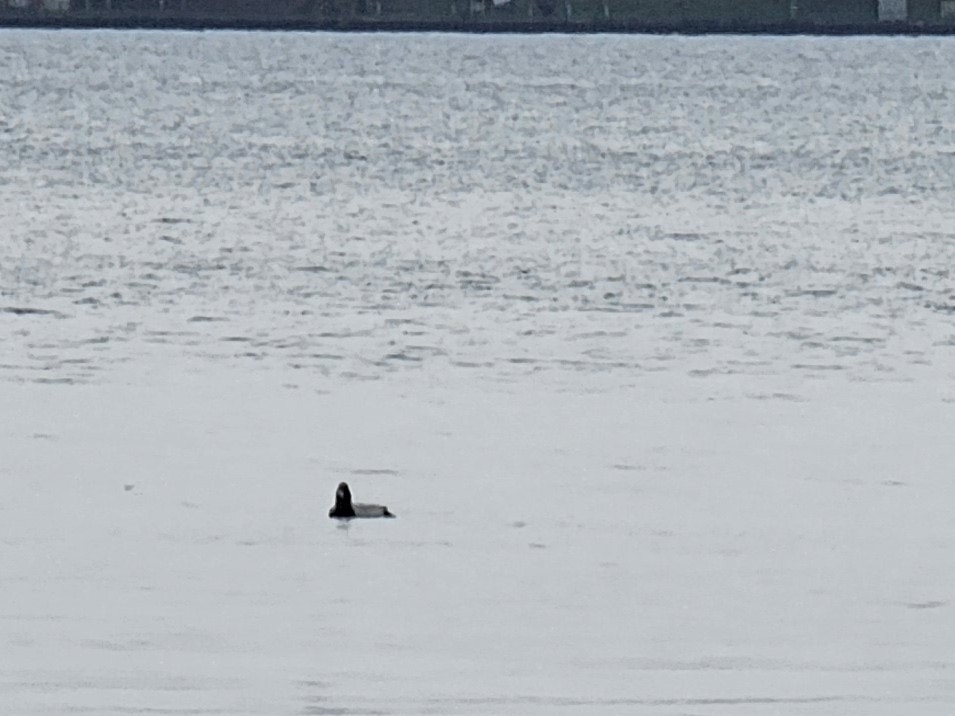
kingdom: Animalia
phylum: Chordata
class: Aves
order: Anseriformes
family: Anatidae
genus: Aythya
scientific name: Aythya ferina
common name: Common pochard
